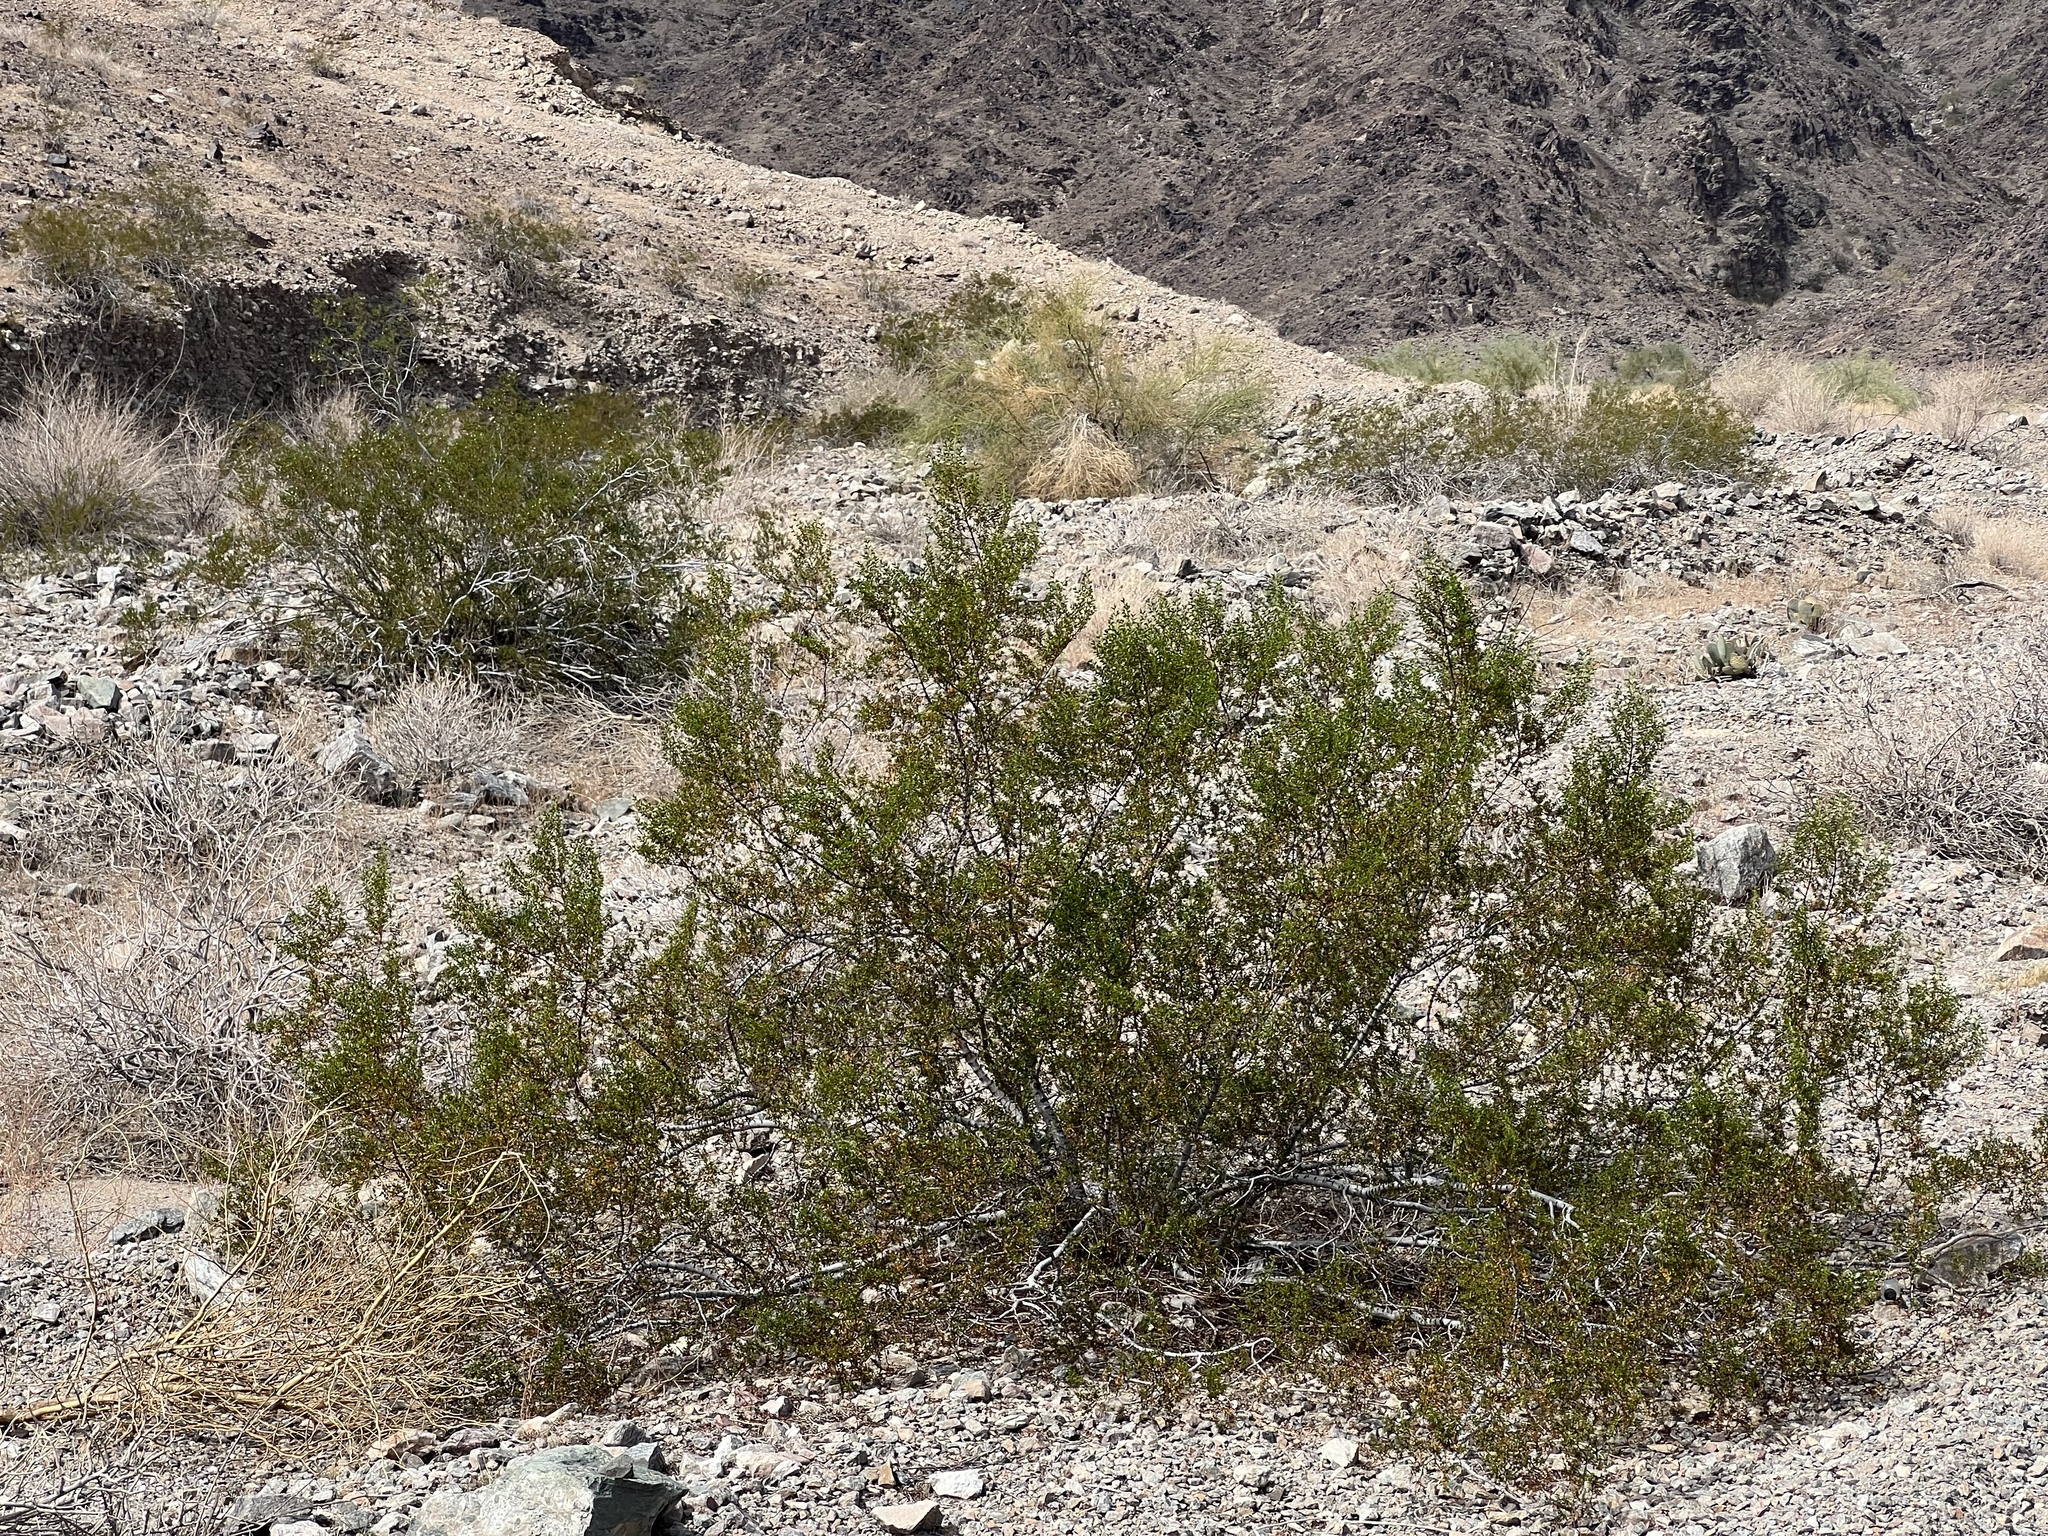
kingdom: Plantae
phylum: Tracheophyta
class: Magnoliopsida
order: Zygophyllales
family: Zygophyllaceae
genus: Larrea
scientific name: Larrea tridentata
